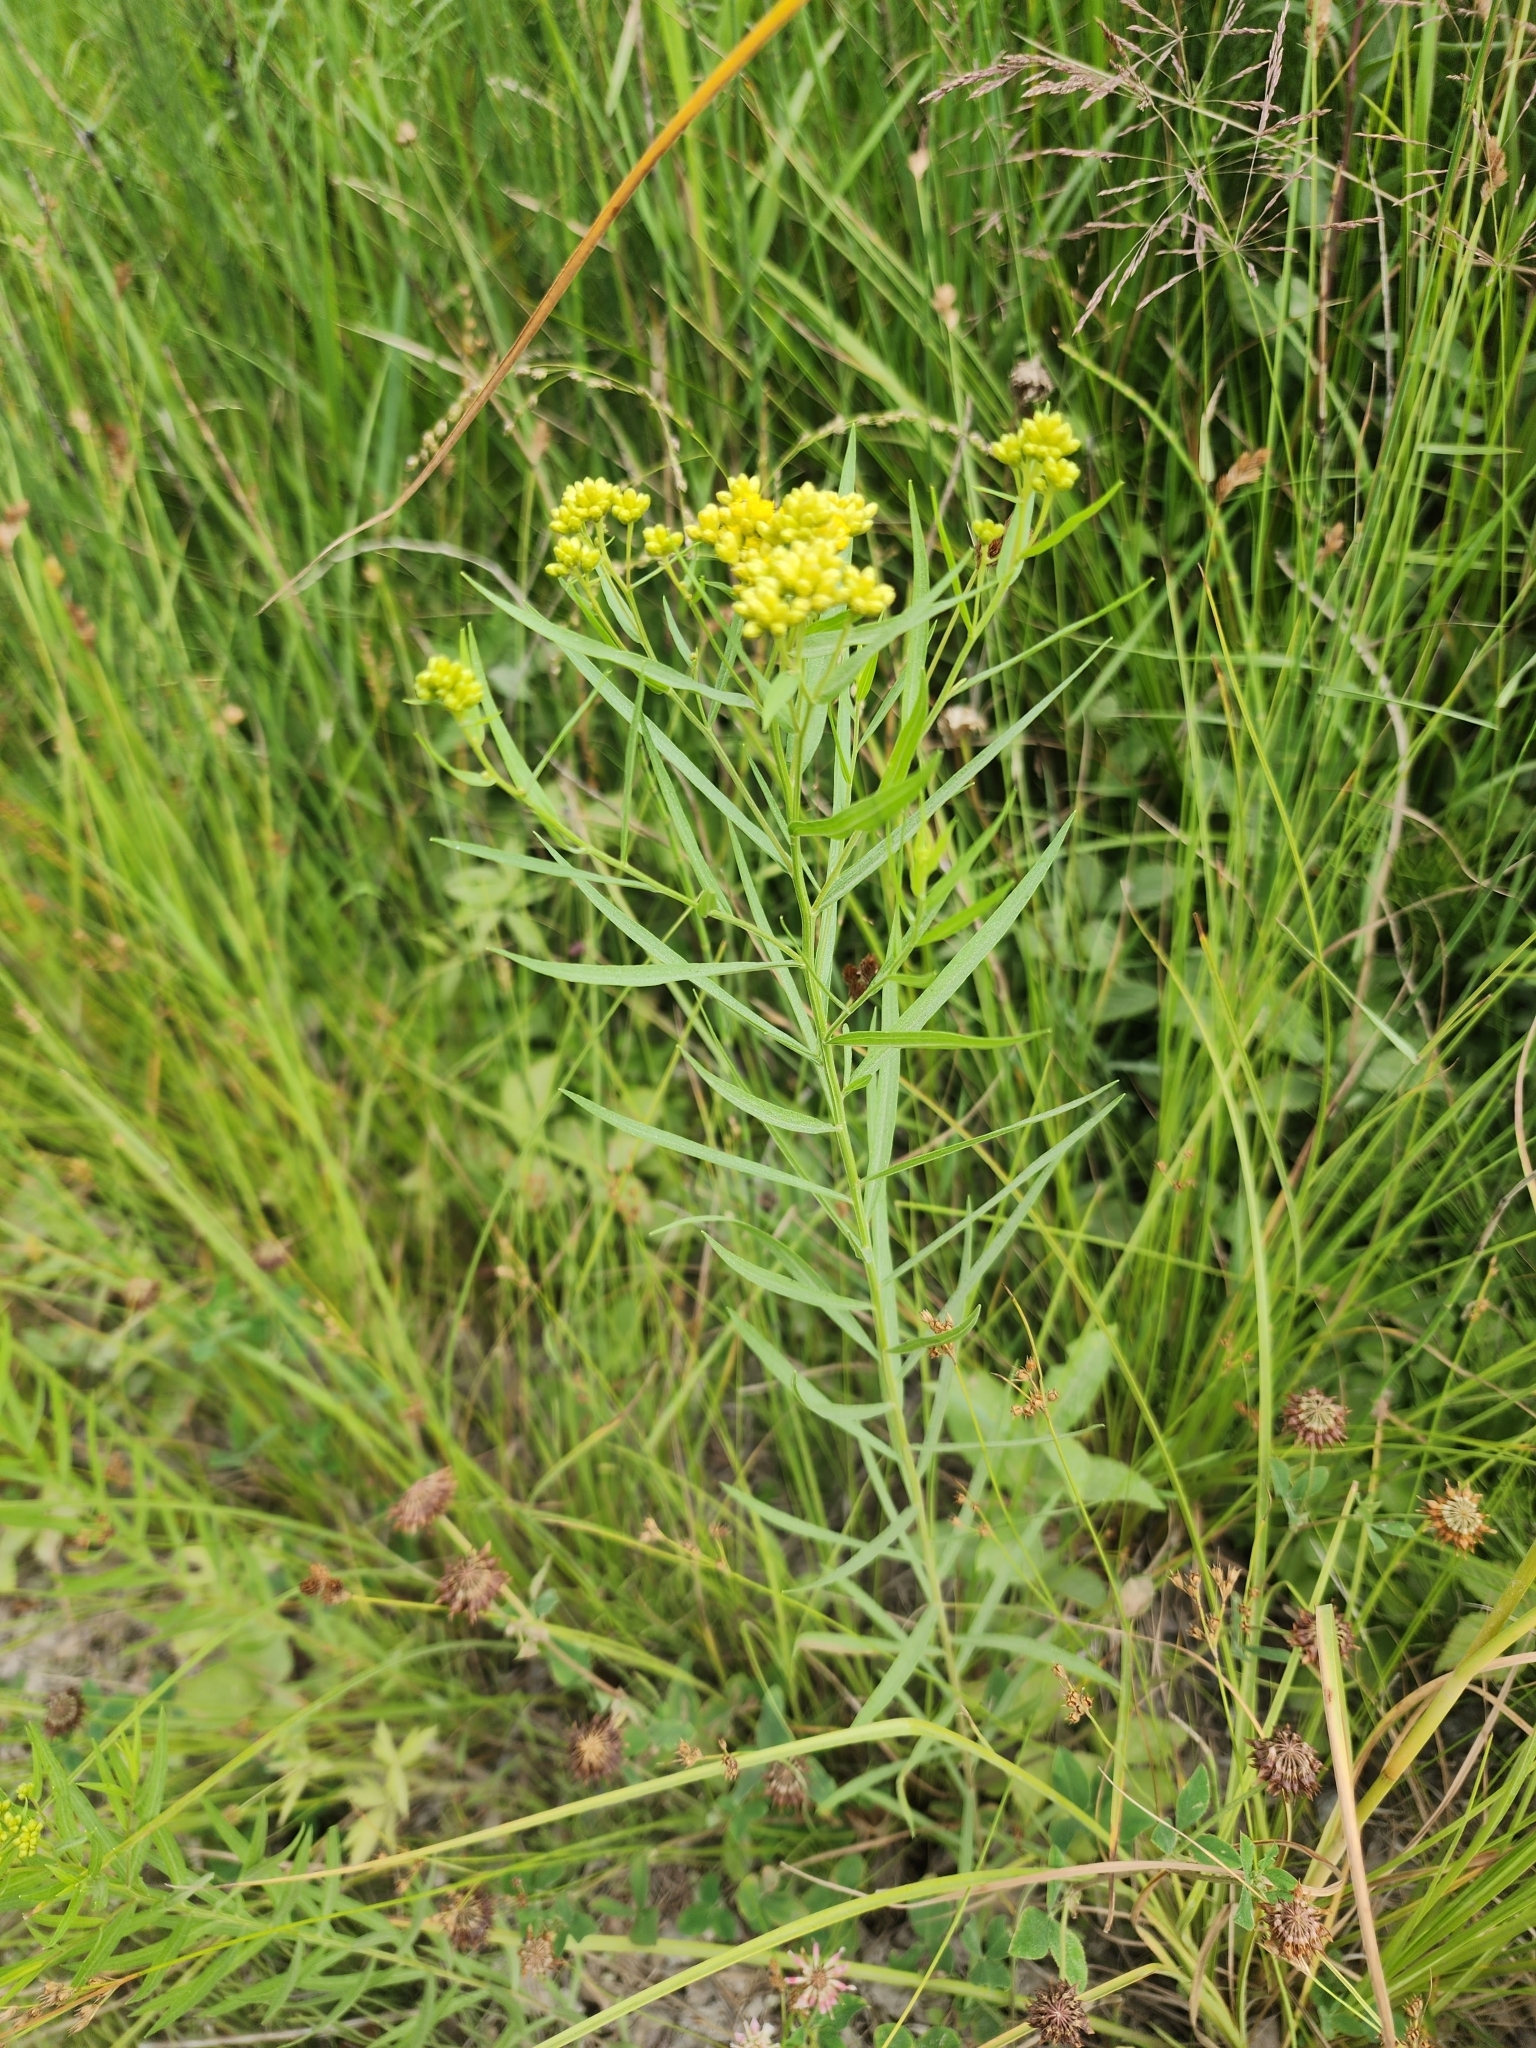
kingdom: Plantae
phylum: Tracheophyta
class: Magnoliopsida
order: Asterales
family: Asteraceae
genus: Euthamia
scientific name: Euthamia graminifolia
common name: Common goldentop
